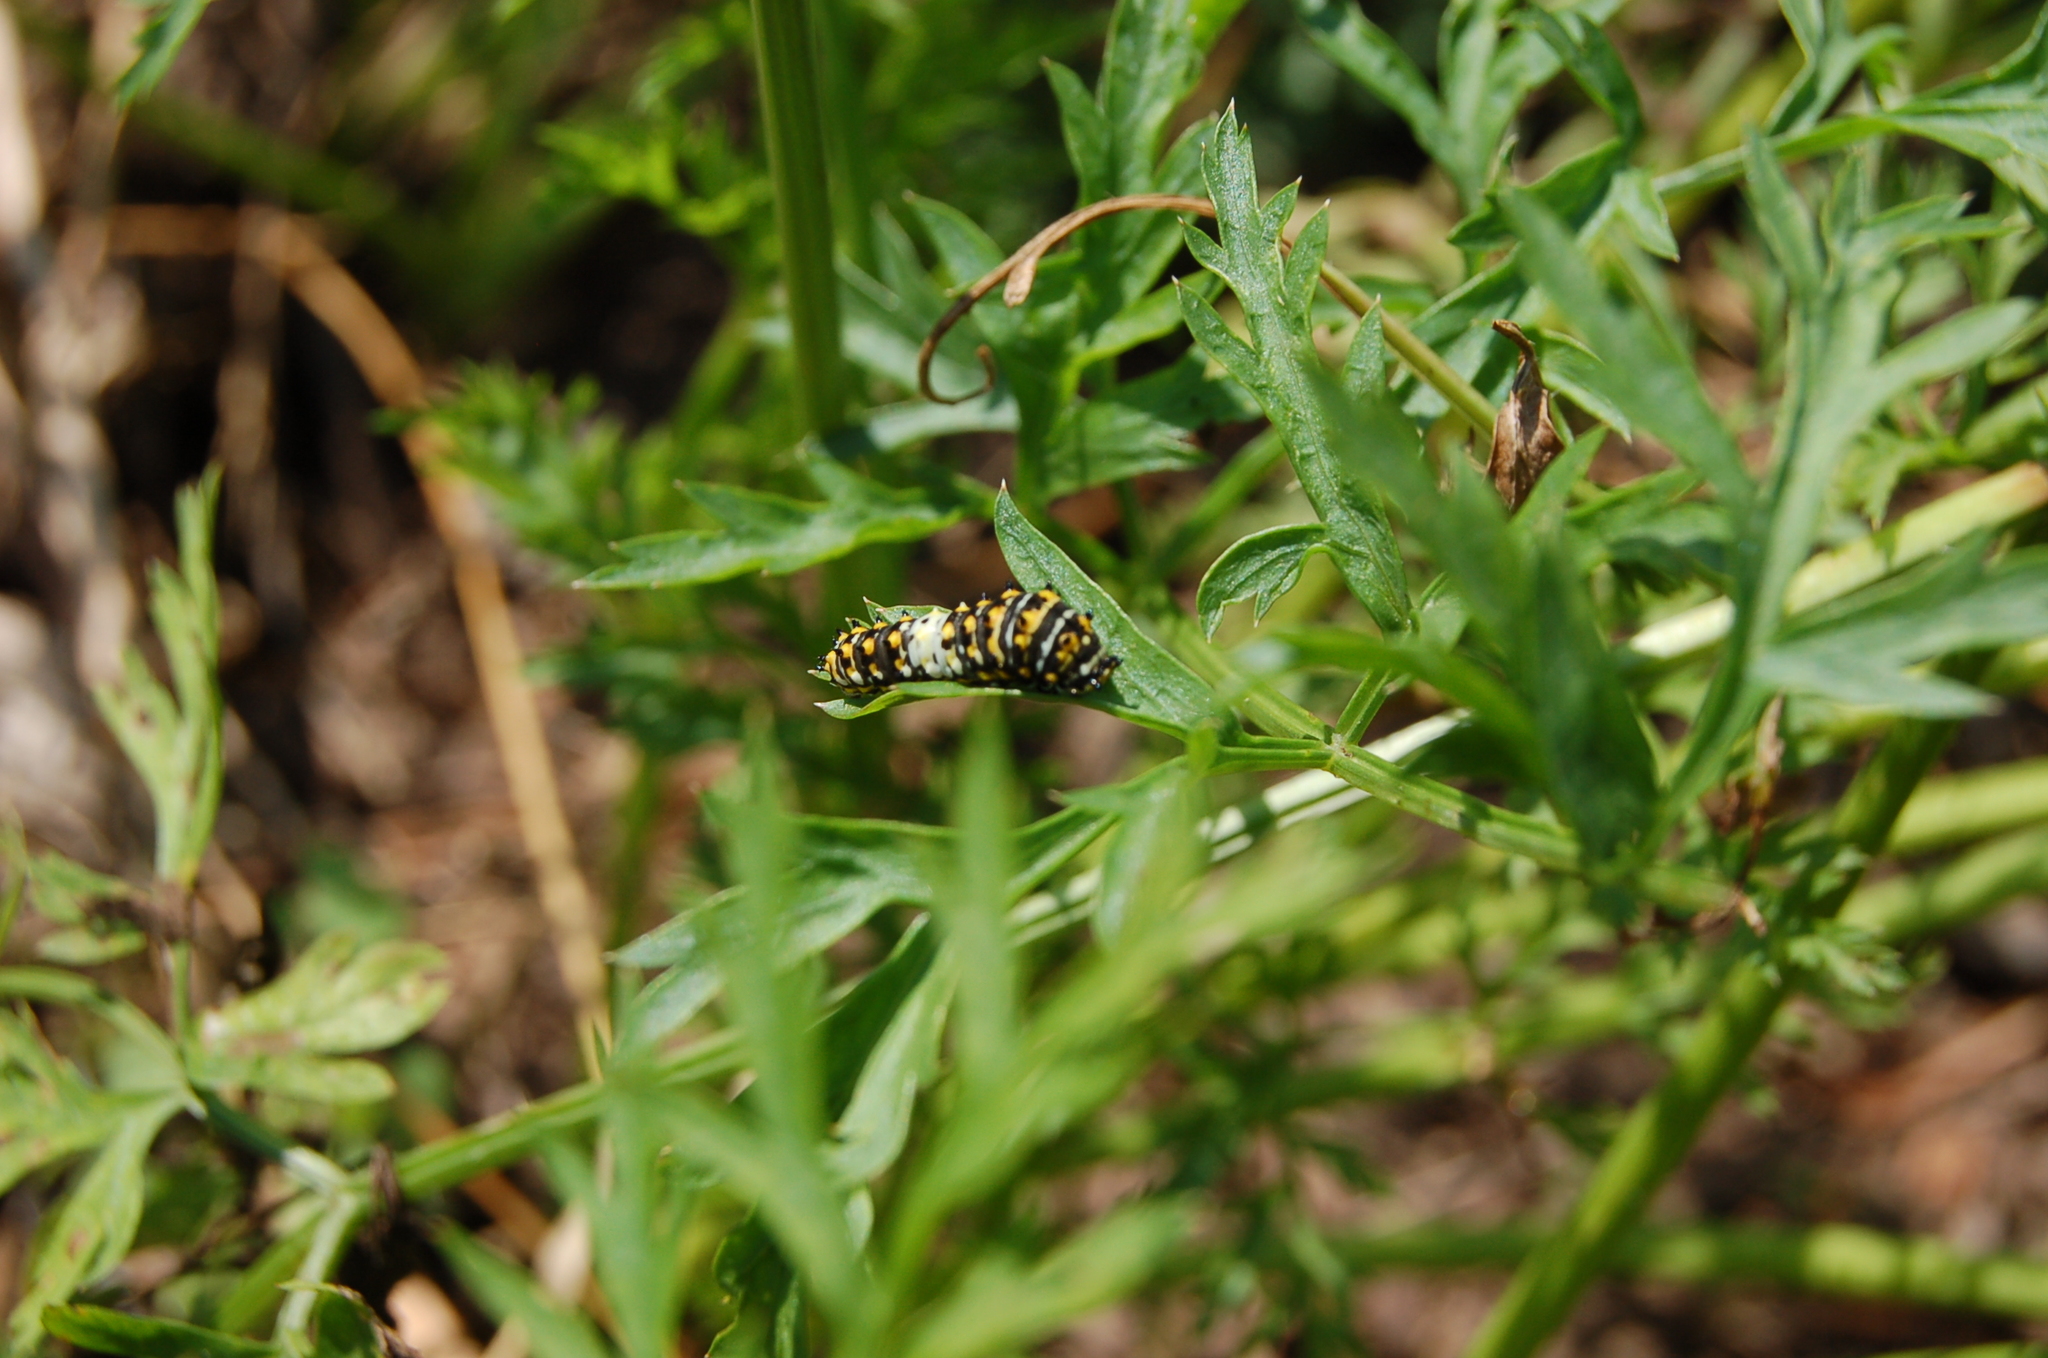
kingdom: Animalia
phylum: Arthropoda
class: Insecta
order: Lepidoptera
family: Papilionidae
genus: Papilio
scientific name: Papilio polyxenes
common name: Black swallowtail
